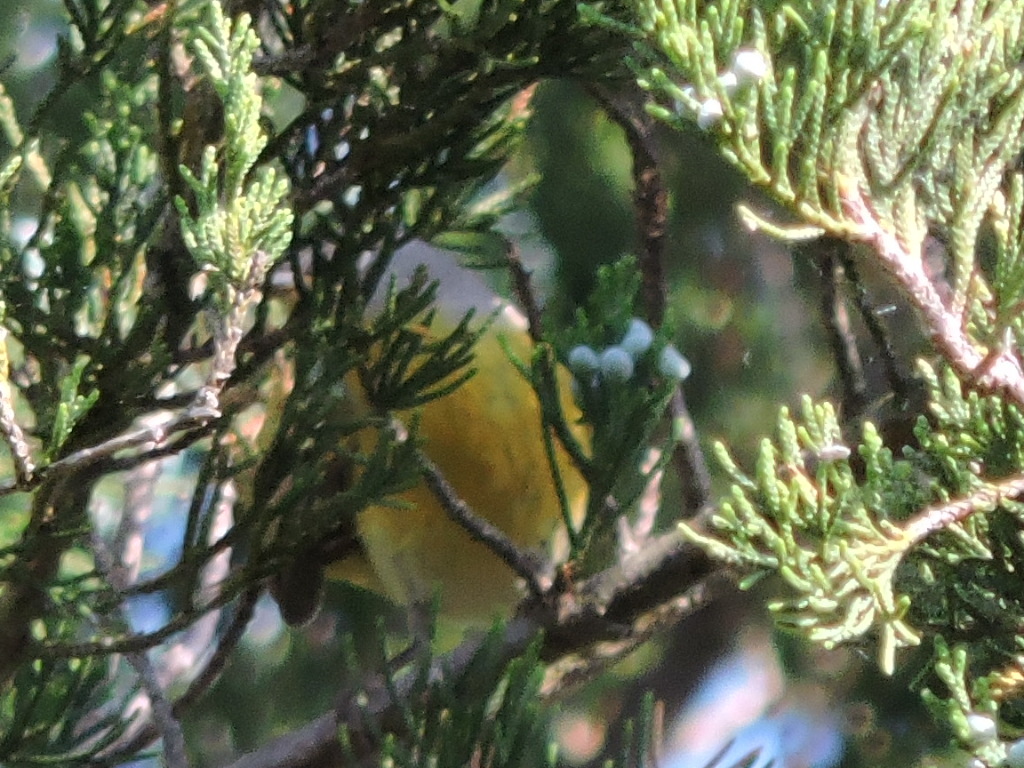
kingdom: Animalia
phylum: Chordata
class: Aves
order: Passeriformes
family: Parulidae
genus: Leiothlypis
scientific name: Leiothlypis ruficapilla
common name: Nashville warbler
